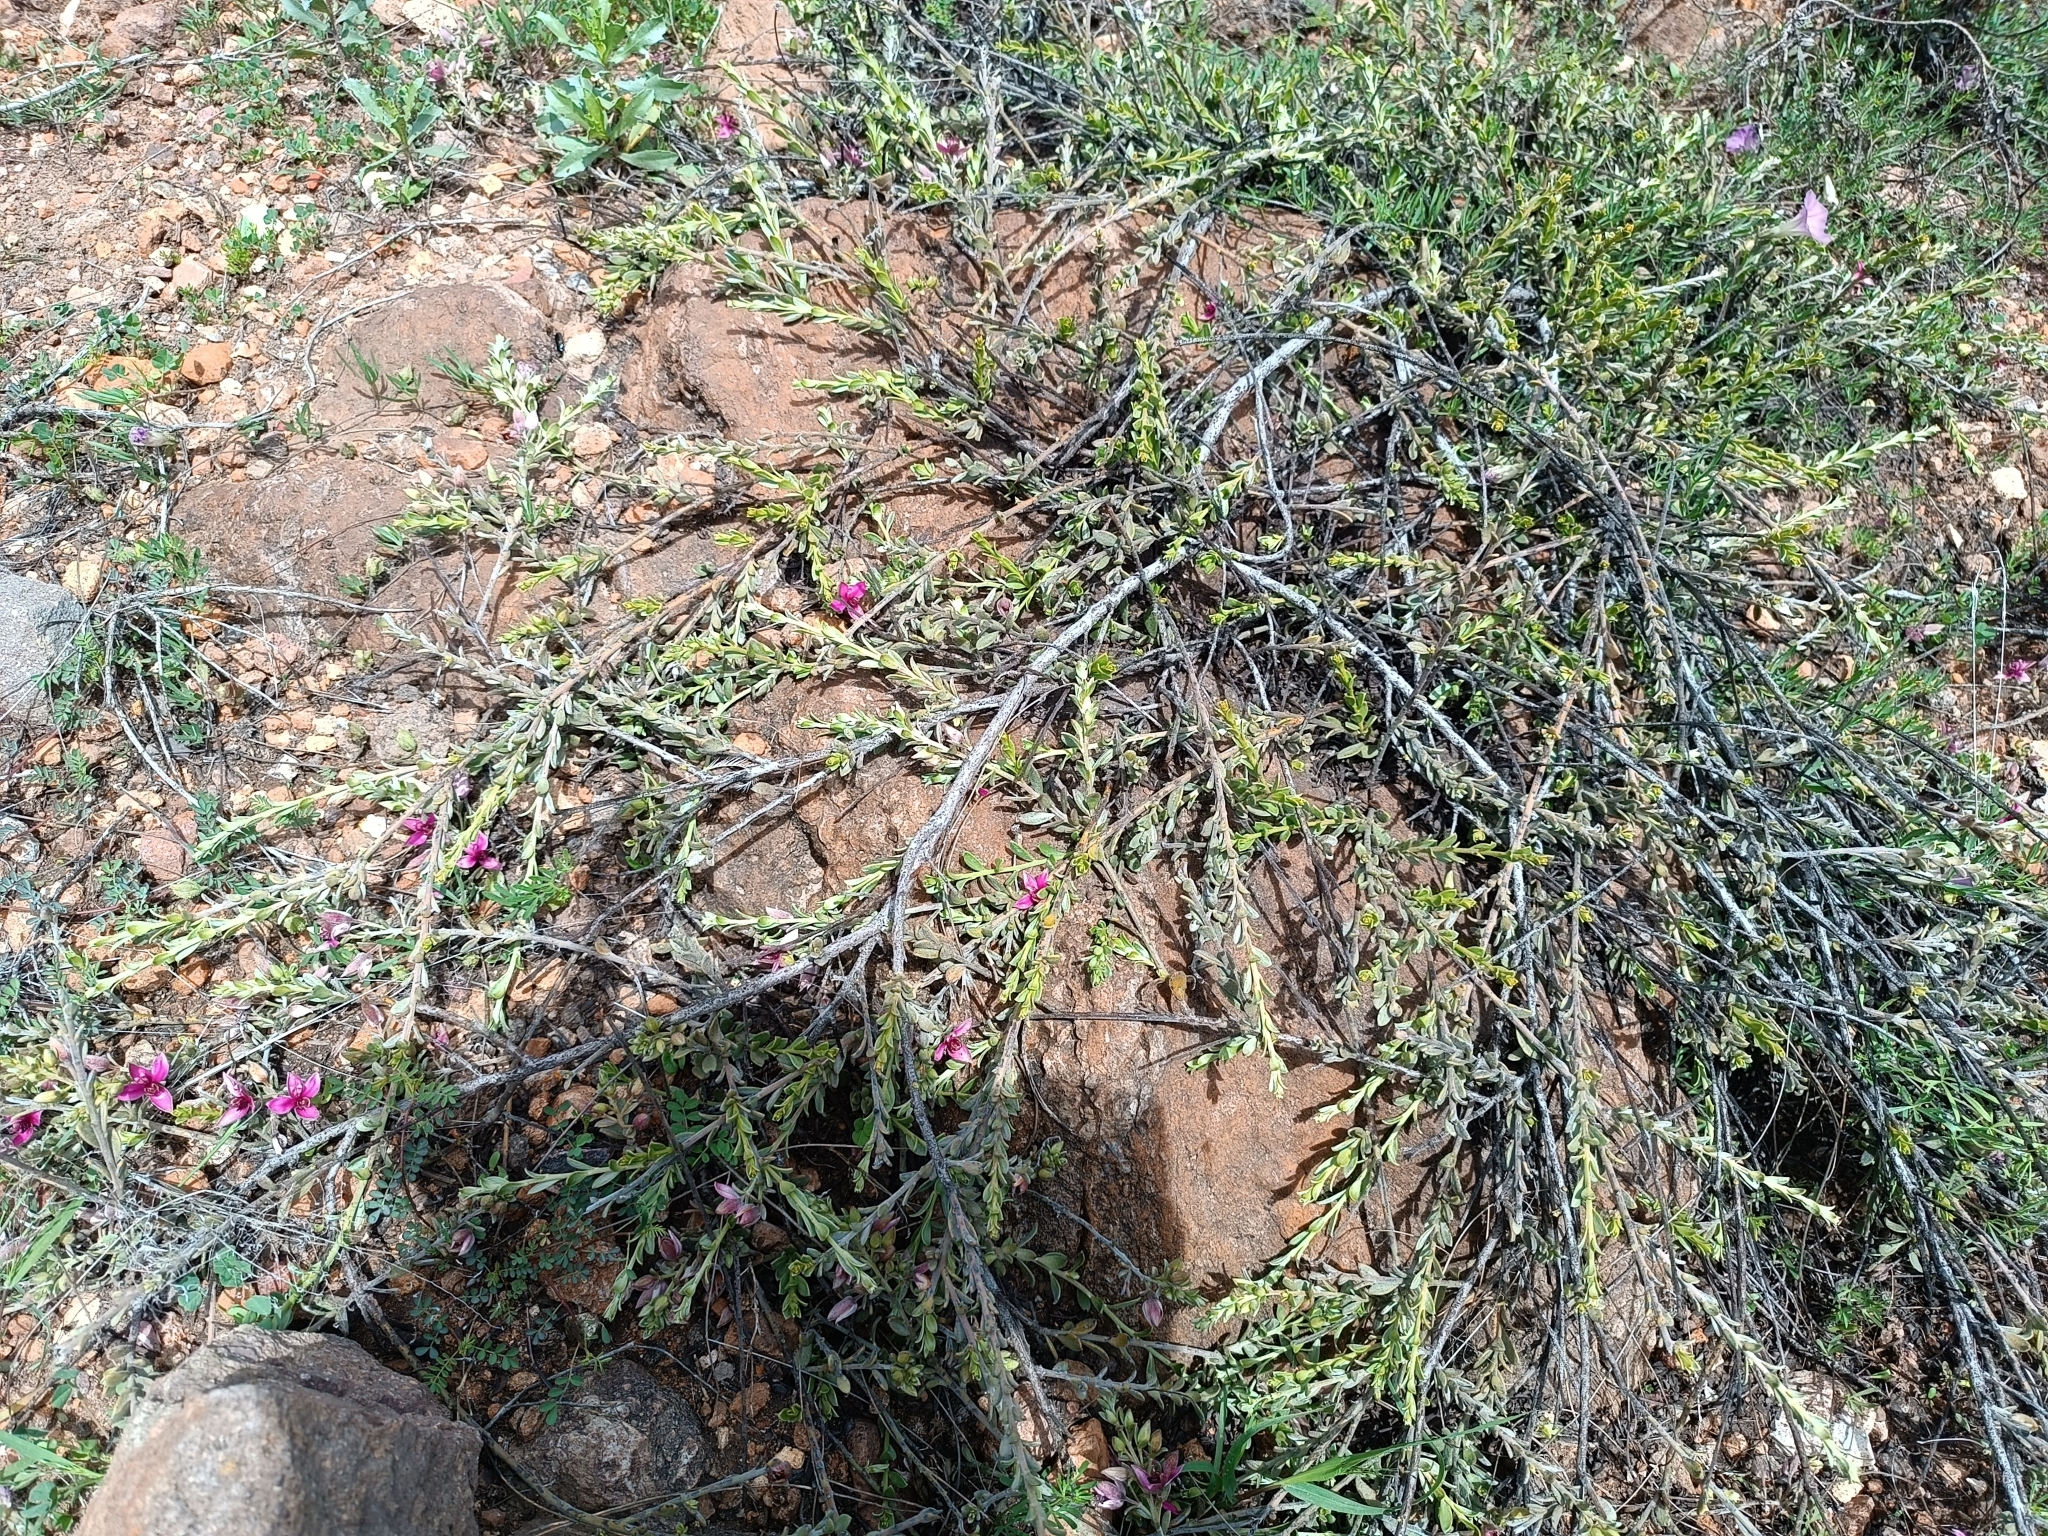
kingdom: Plantae
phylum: Tracheophyta
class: Magnoliopsida
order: Zygophyllales
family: Krameriaceae
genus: Krameria
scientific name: Krameria lappacea
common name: Rhatany
